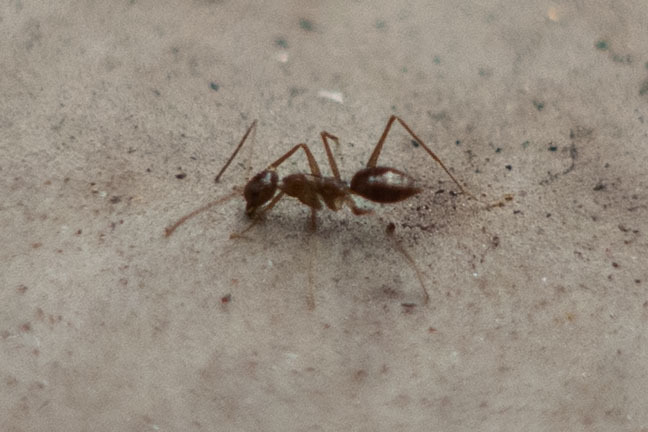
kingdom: Animalia
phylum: Arthropoda
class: Insecta
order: Hymenoptera
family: Formicidae
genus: Paratrechina
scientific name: Paratrechina longicornis
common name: Longhorned crazy ant
